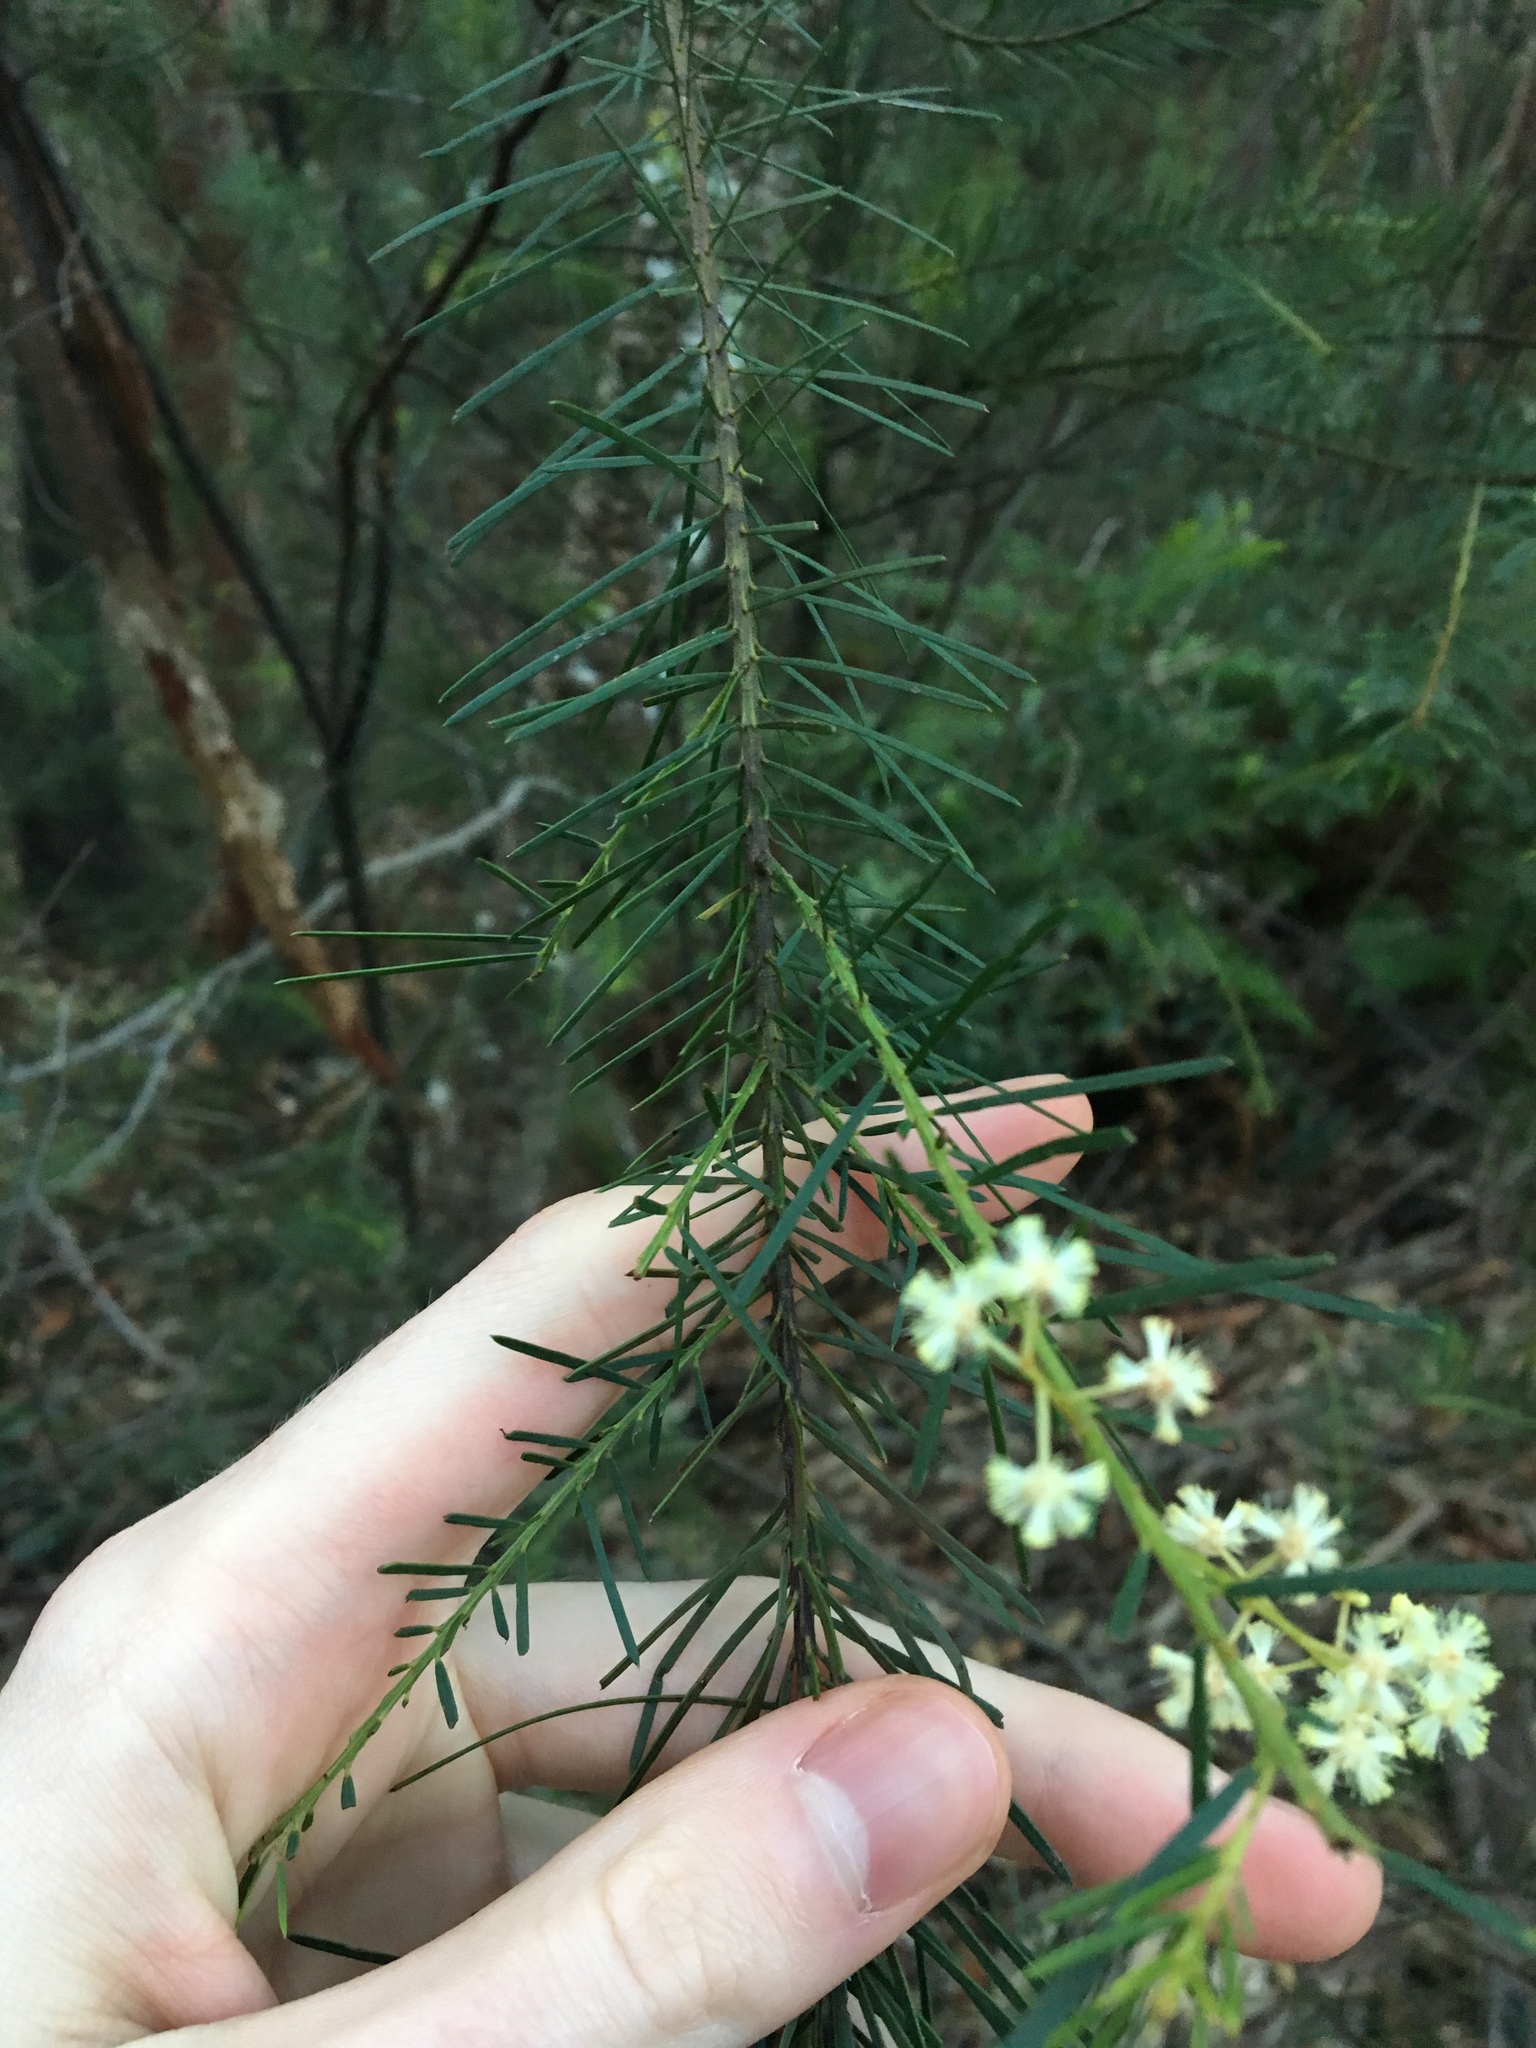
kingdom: Plantae
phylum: Tracheophyta
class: Magnoliopsida
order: Fabales
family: Fabaceae
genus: Acacia
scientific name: Acacia linifolia
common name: White wattle
